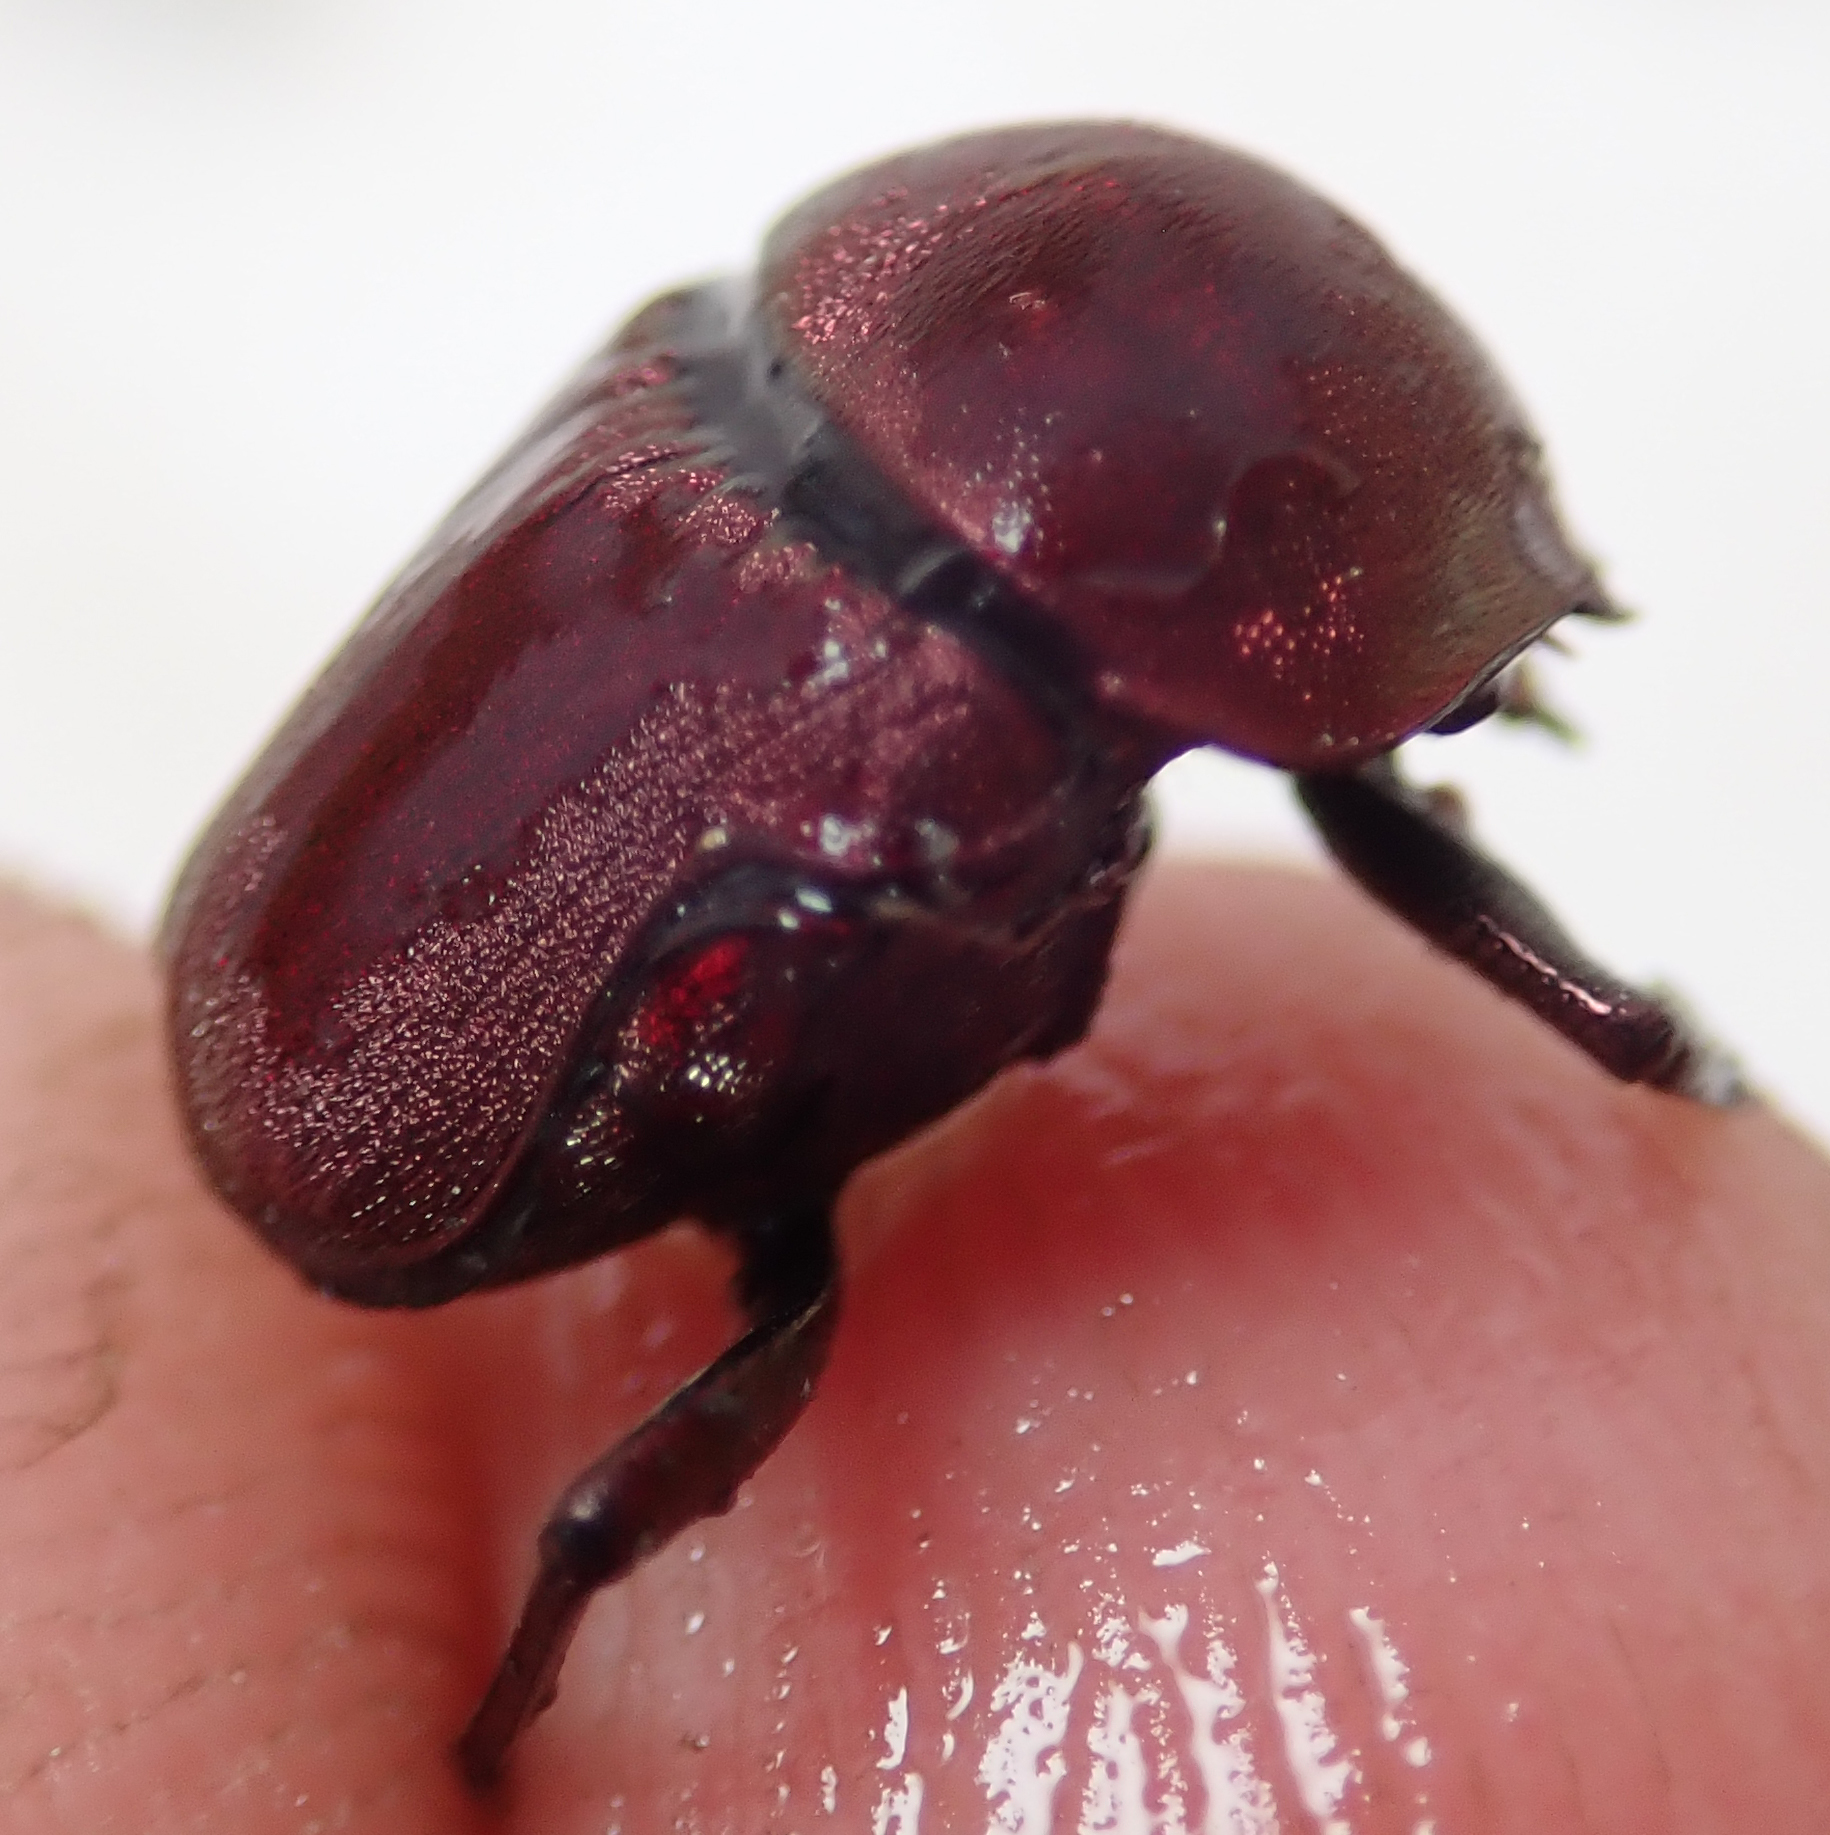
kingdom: Animalia
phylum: Arthropoda
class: Insecta
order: Coleoptera
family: Scarabaeidae
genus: Gymnopleurus
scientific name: Gymnopleurus aenescens
